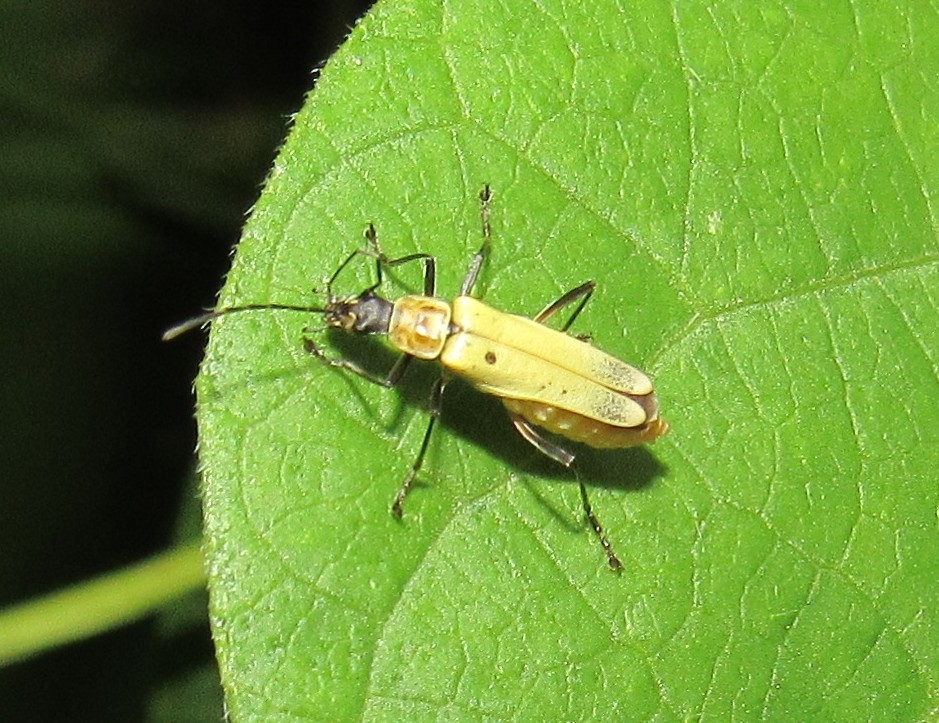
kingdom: Animalia
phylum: Arthropoda
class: Insecta
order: Coleoptera
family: Cantharidae
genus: Chauliognathus
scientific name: Chauliognathus
